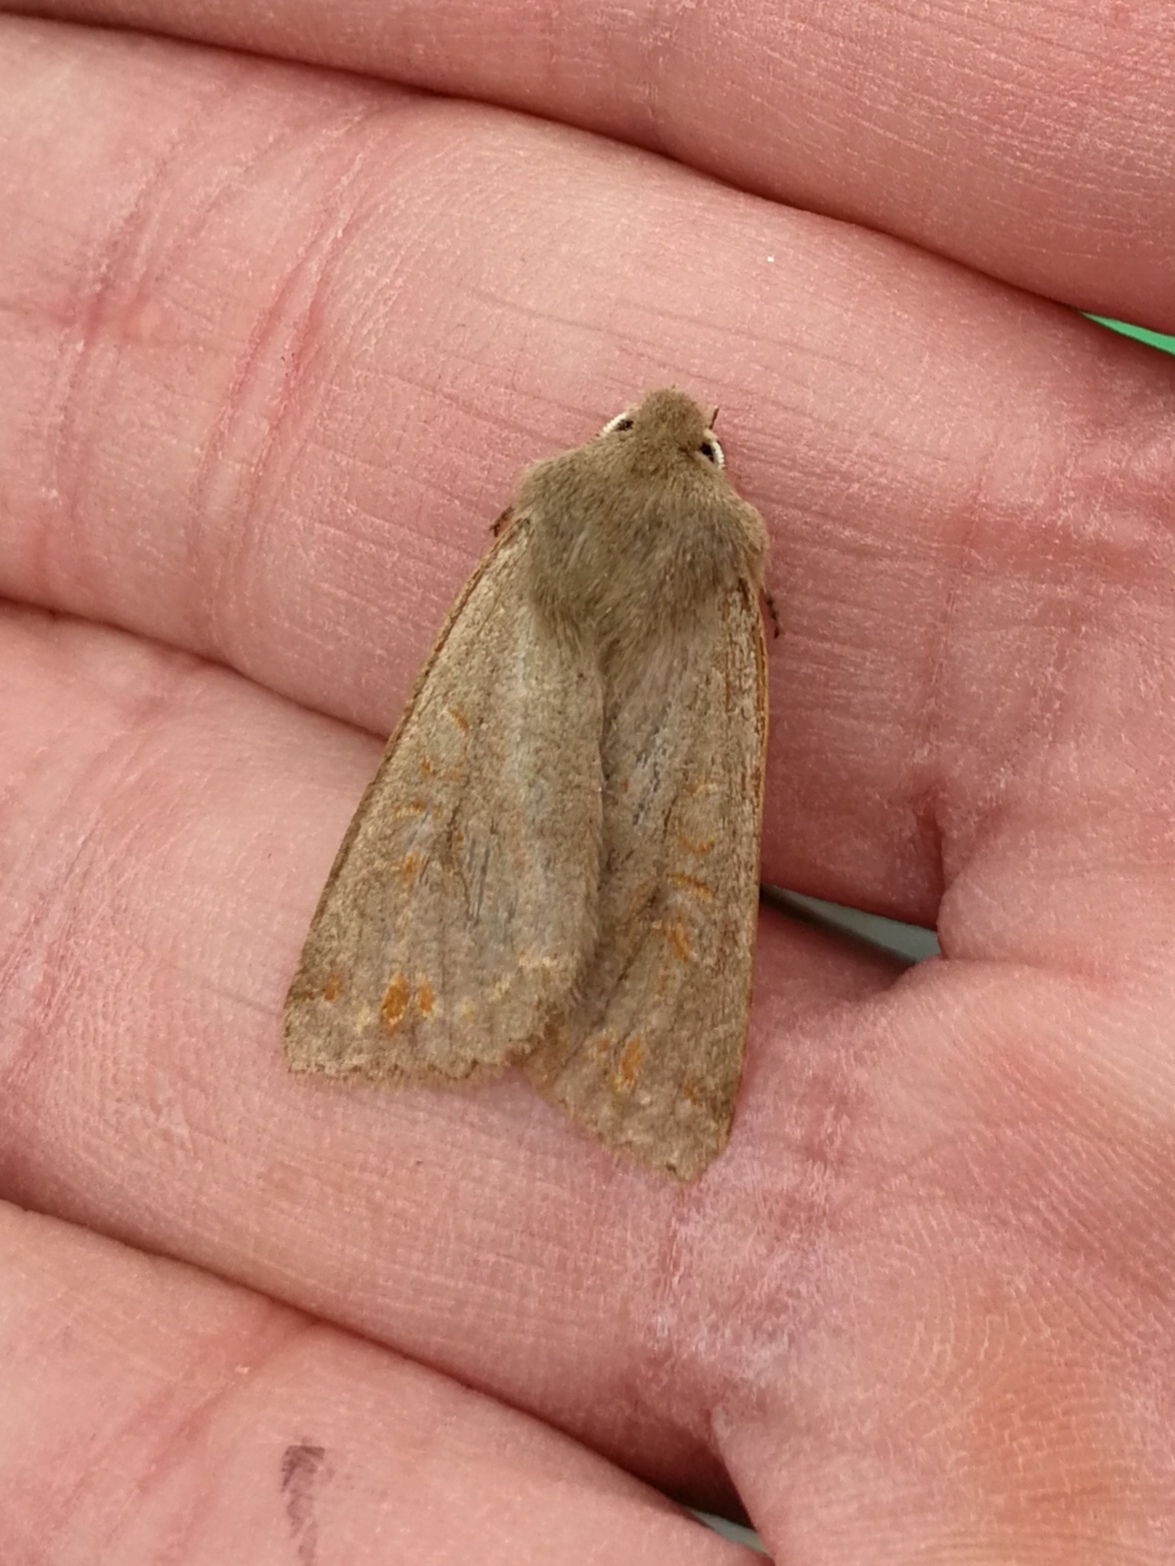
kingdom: Animalia
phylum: Arthropoda
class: Insecta
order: Lepidoptera
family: Noctuidae
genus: Anorthoa
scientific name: Anorthoa munda
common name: Twin-spotted quaker
